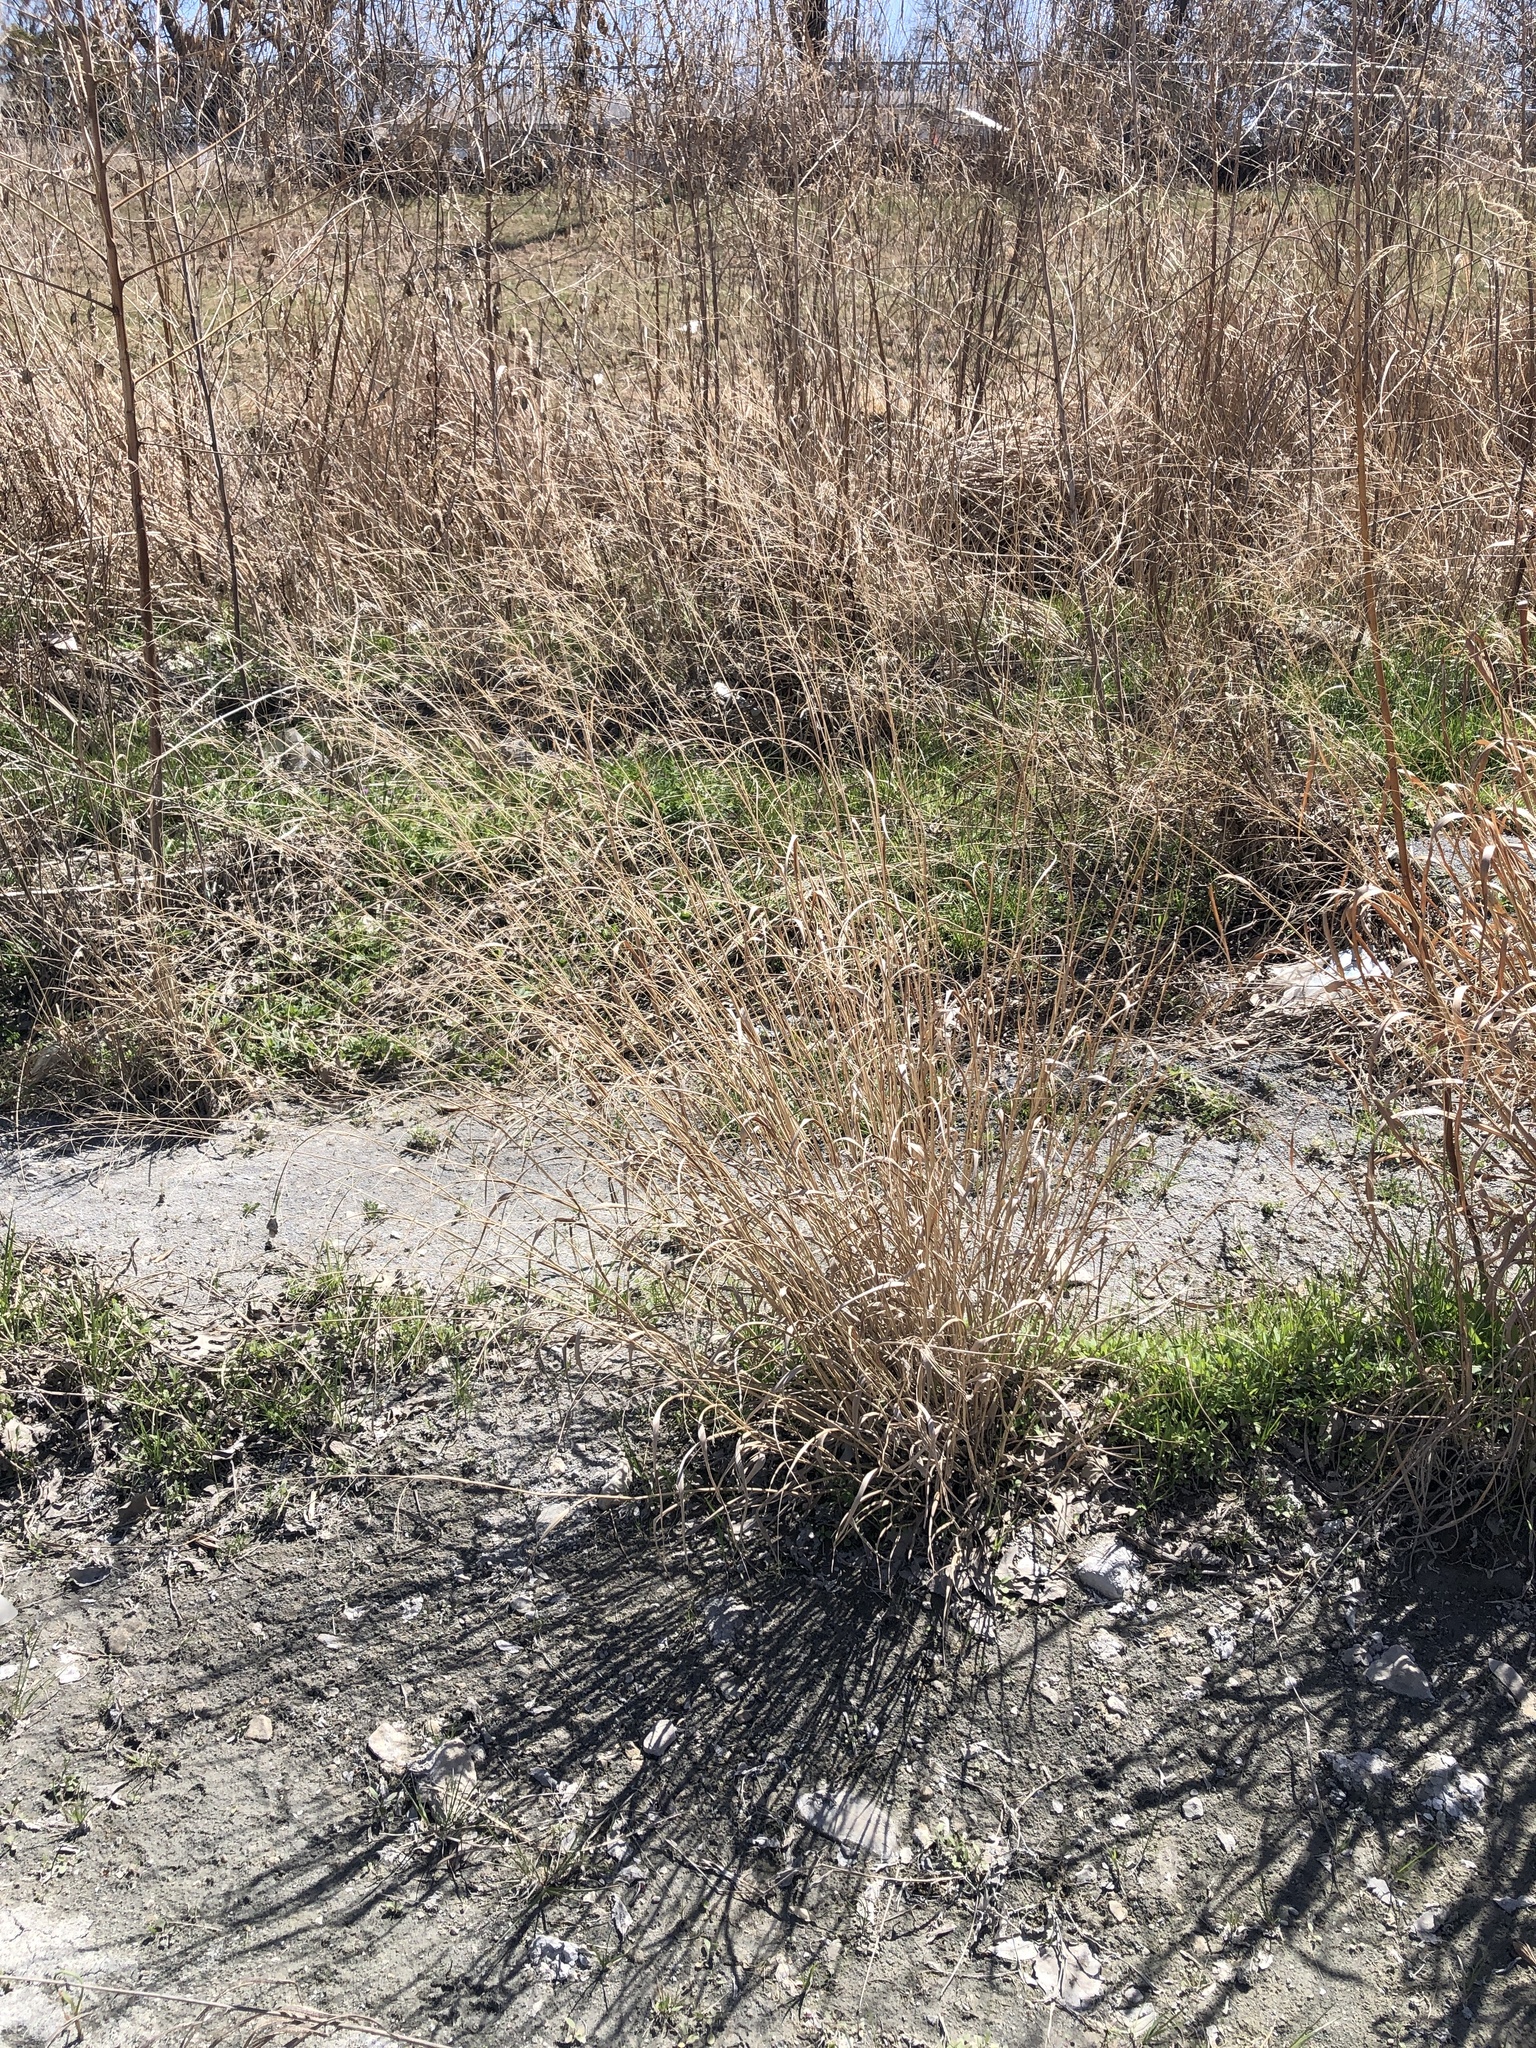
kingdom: Plantae
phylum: Tracheophyta
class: Liliopsida
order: Poales
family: Poaceae
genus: Panicum
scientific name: Panicum virgatum
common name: Switchgrass
